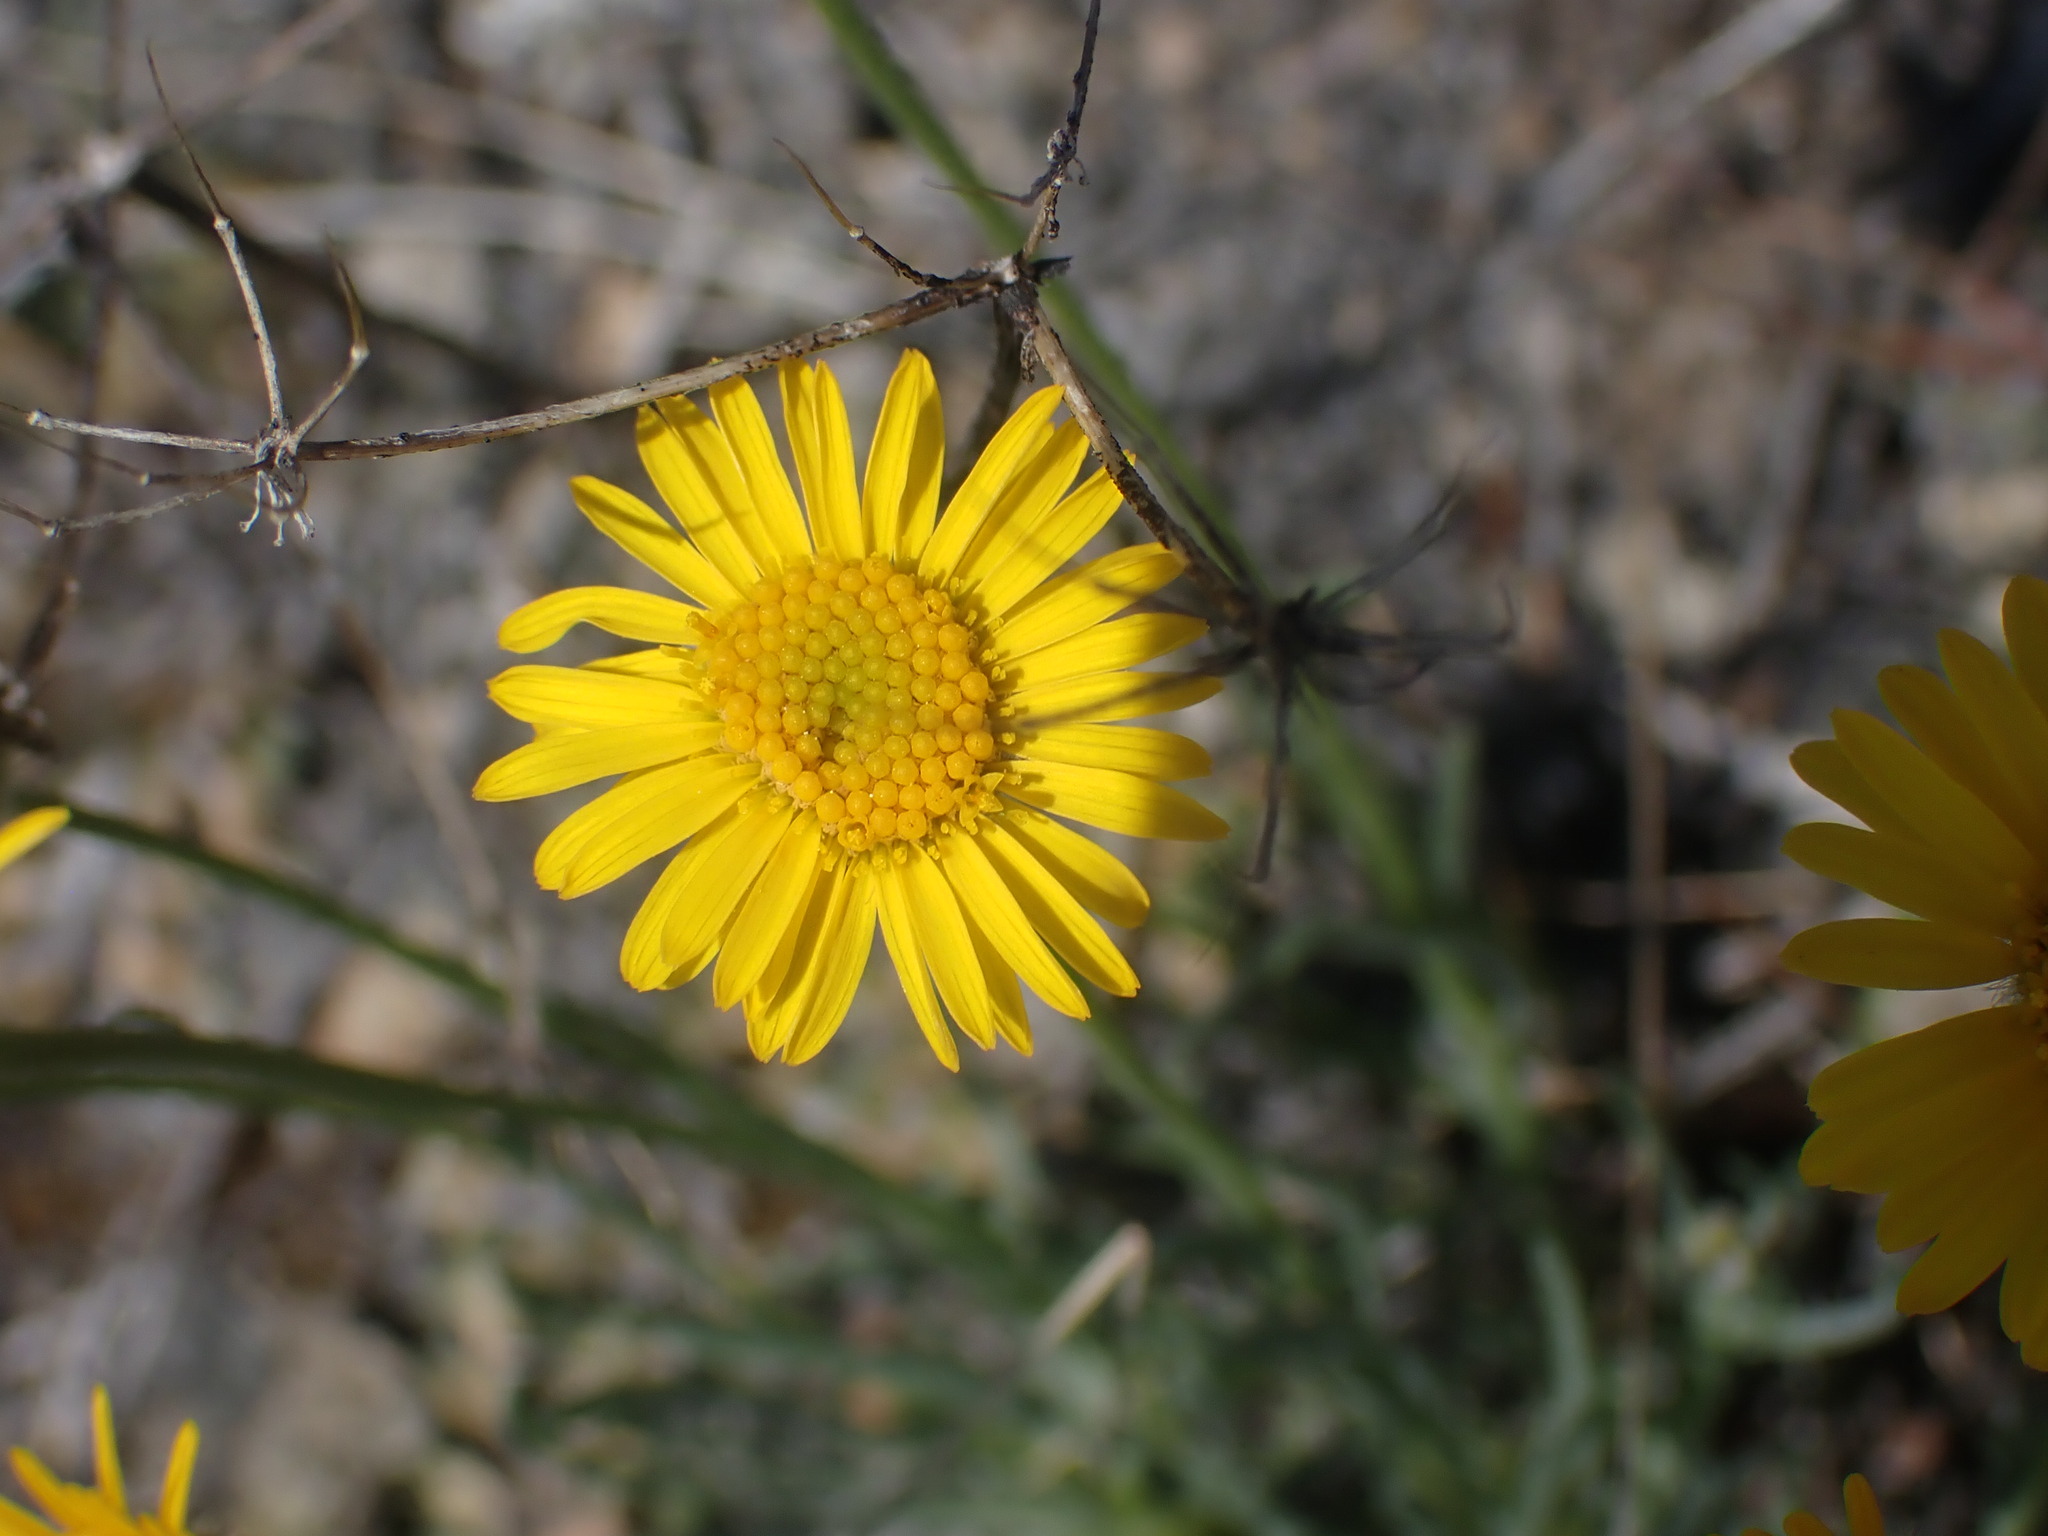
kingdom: Plantae
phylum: Tracheophyta
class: Magnoliopsida
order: Asterales
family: Asteraceae
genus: Erigeron
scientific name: Erigeron linearis
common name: Desert yellow fleabane
